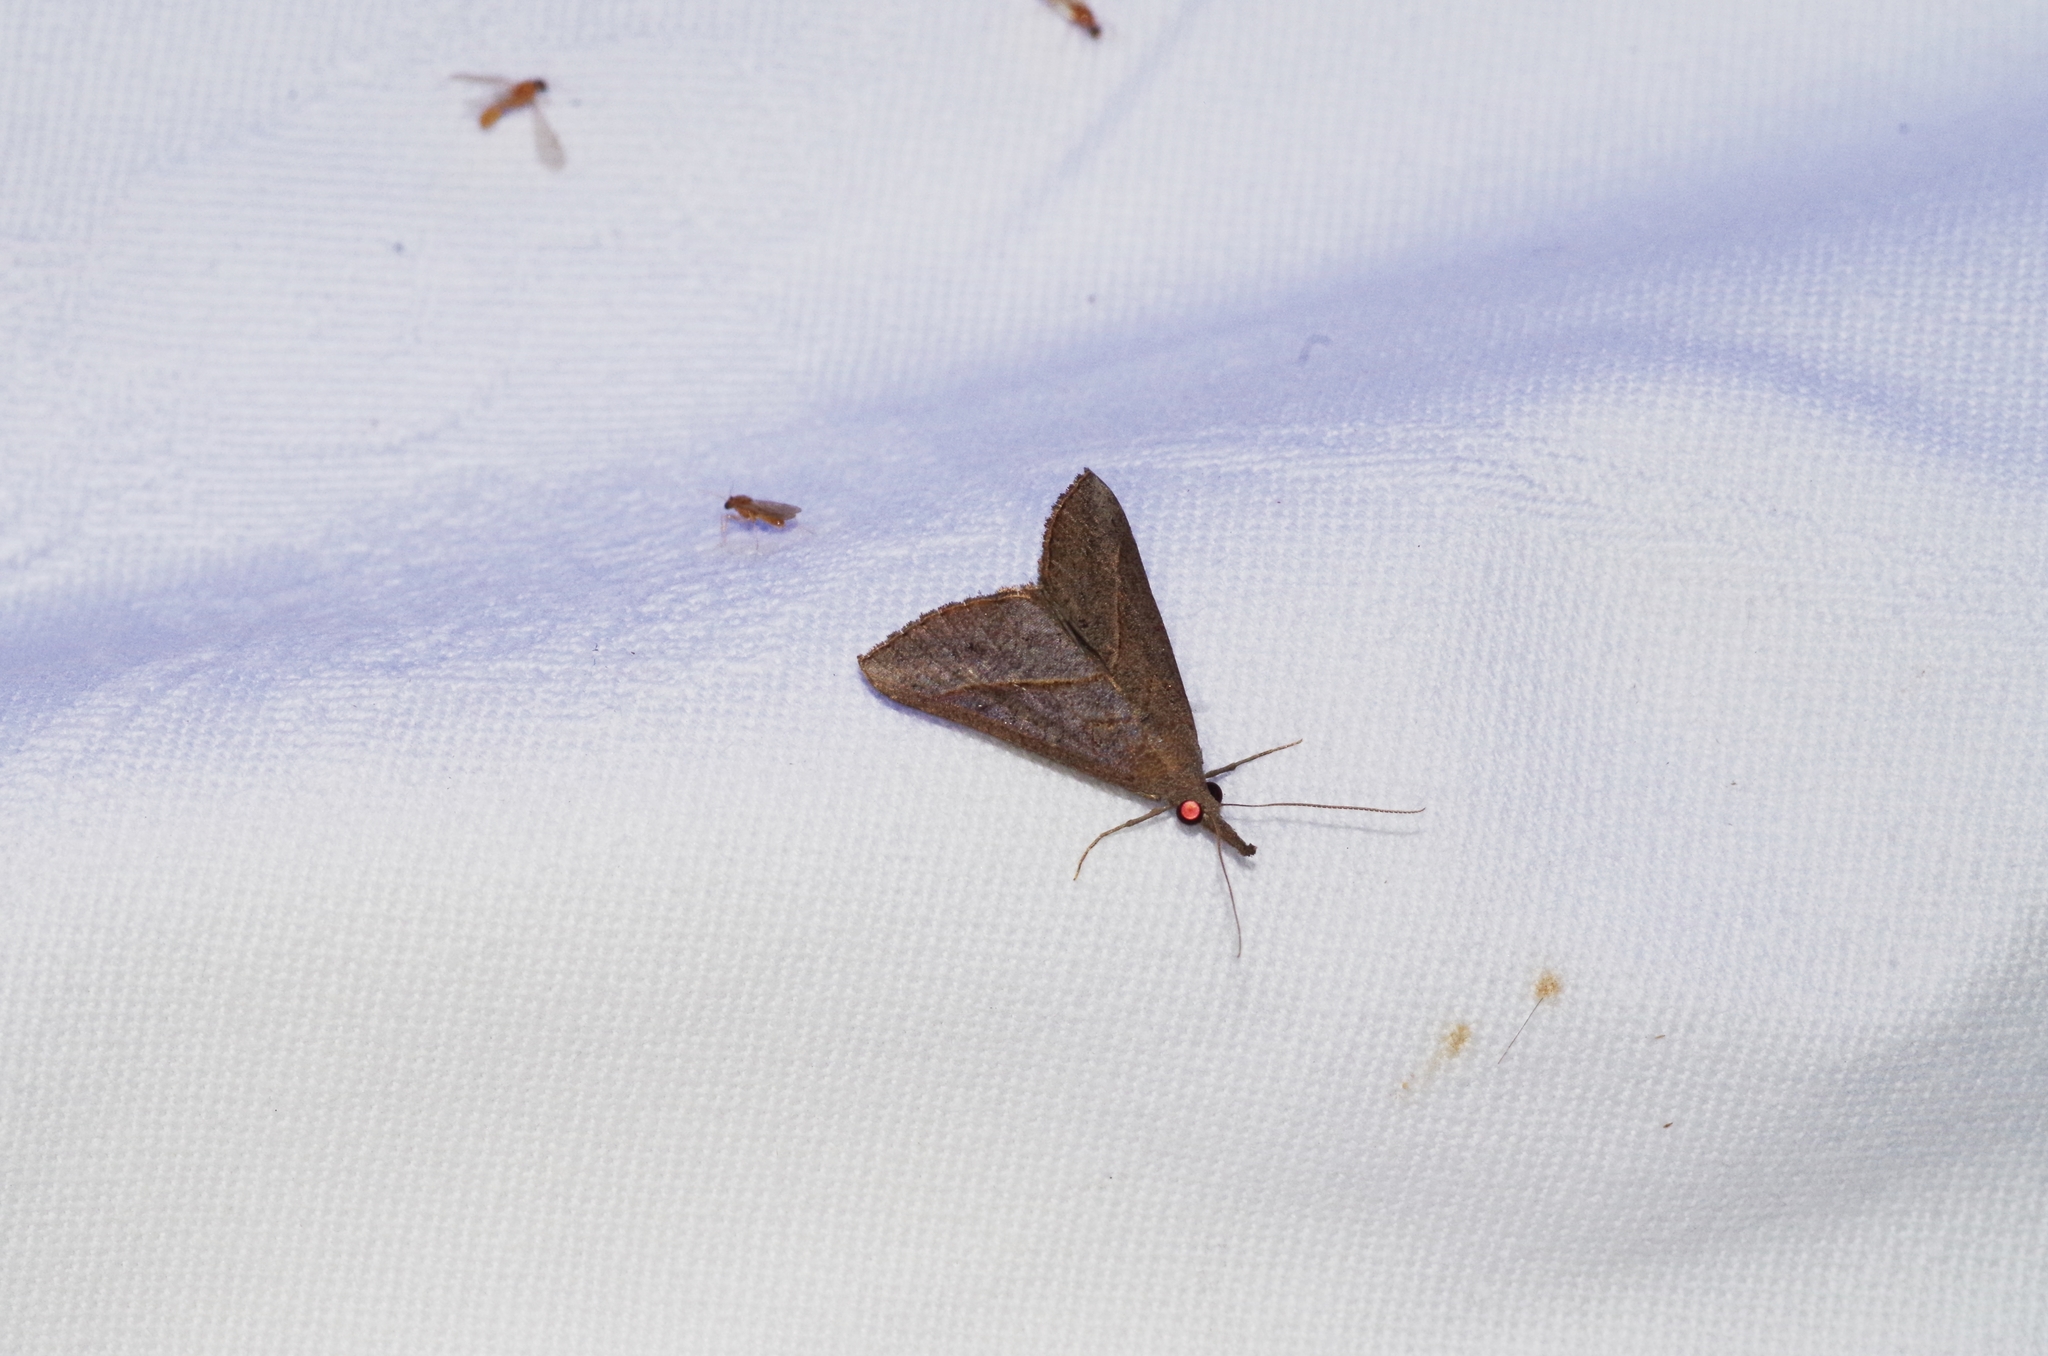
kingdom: Animalia
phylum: Arthropoda
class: Insecta
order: Lepidoptera
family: Erebidae
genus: Hypena
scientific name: Hypena lividalis
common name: Chevron snout
